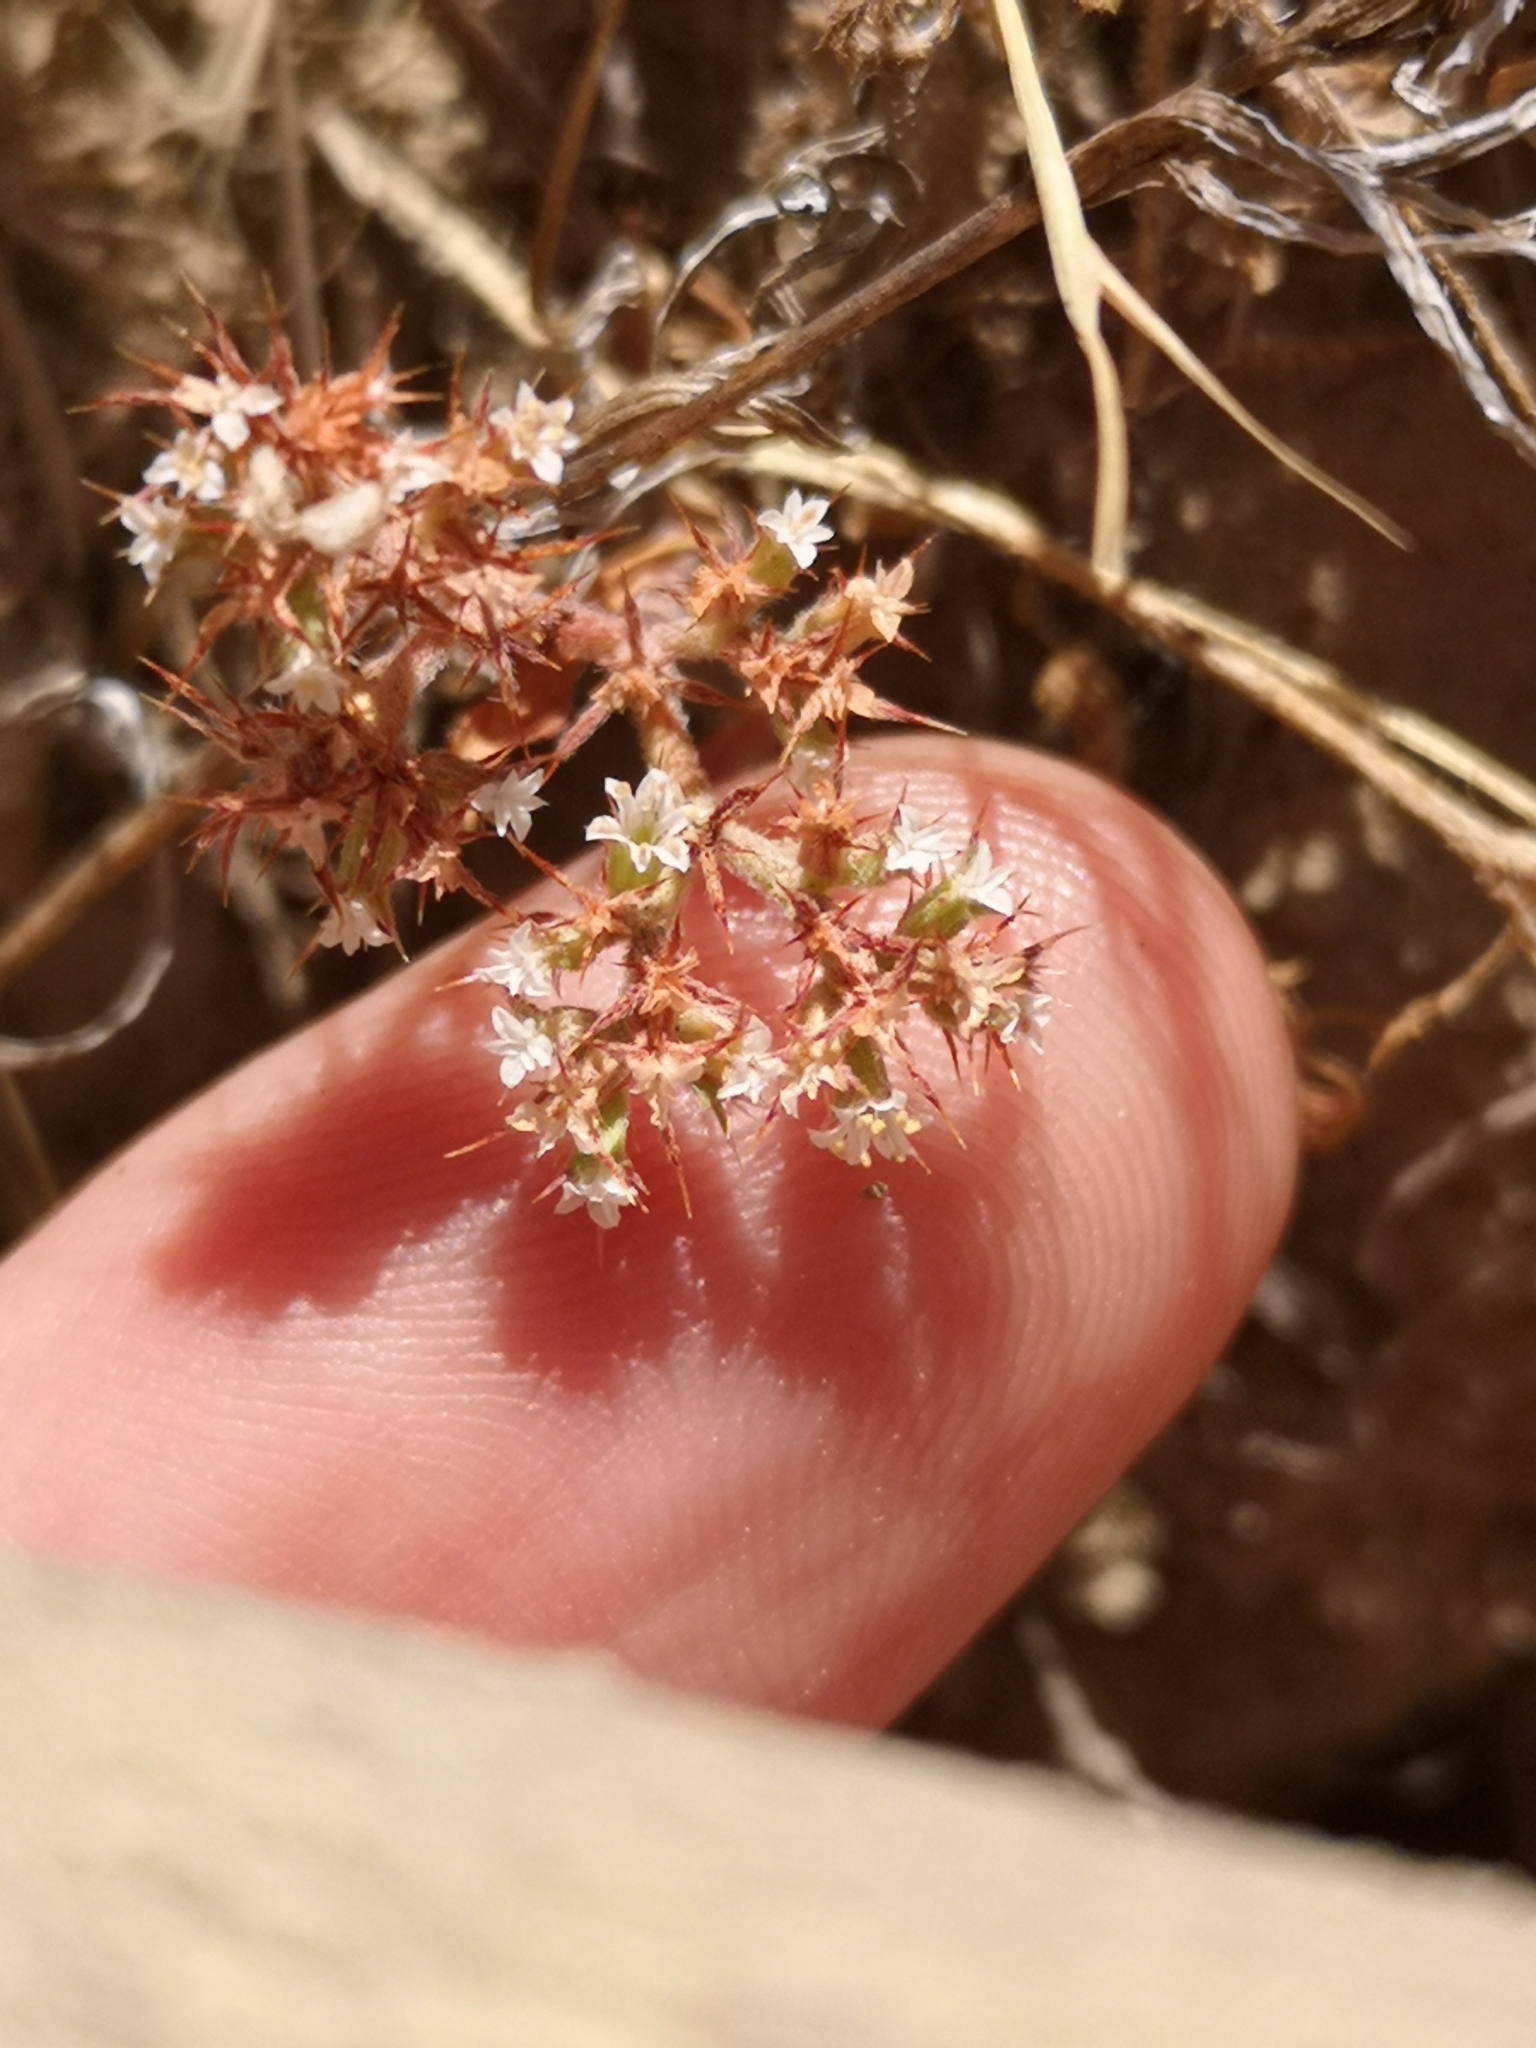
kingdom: Plantae
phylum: Tracheophyta
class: Magnoliopsida
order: Caryophyllales
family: Polygonaceae
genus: Chorizanthe
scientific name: Chorizanthe parryi
